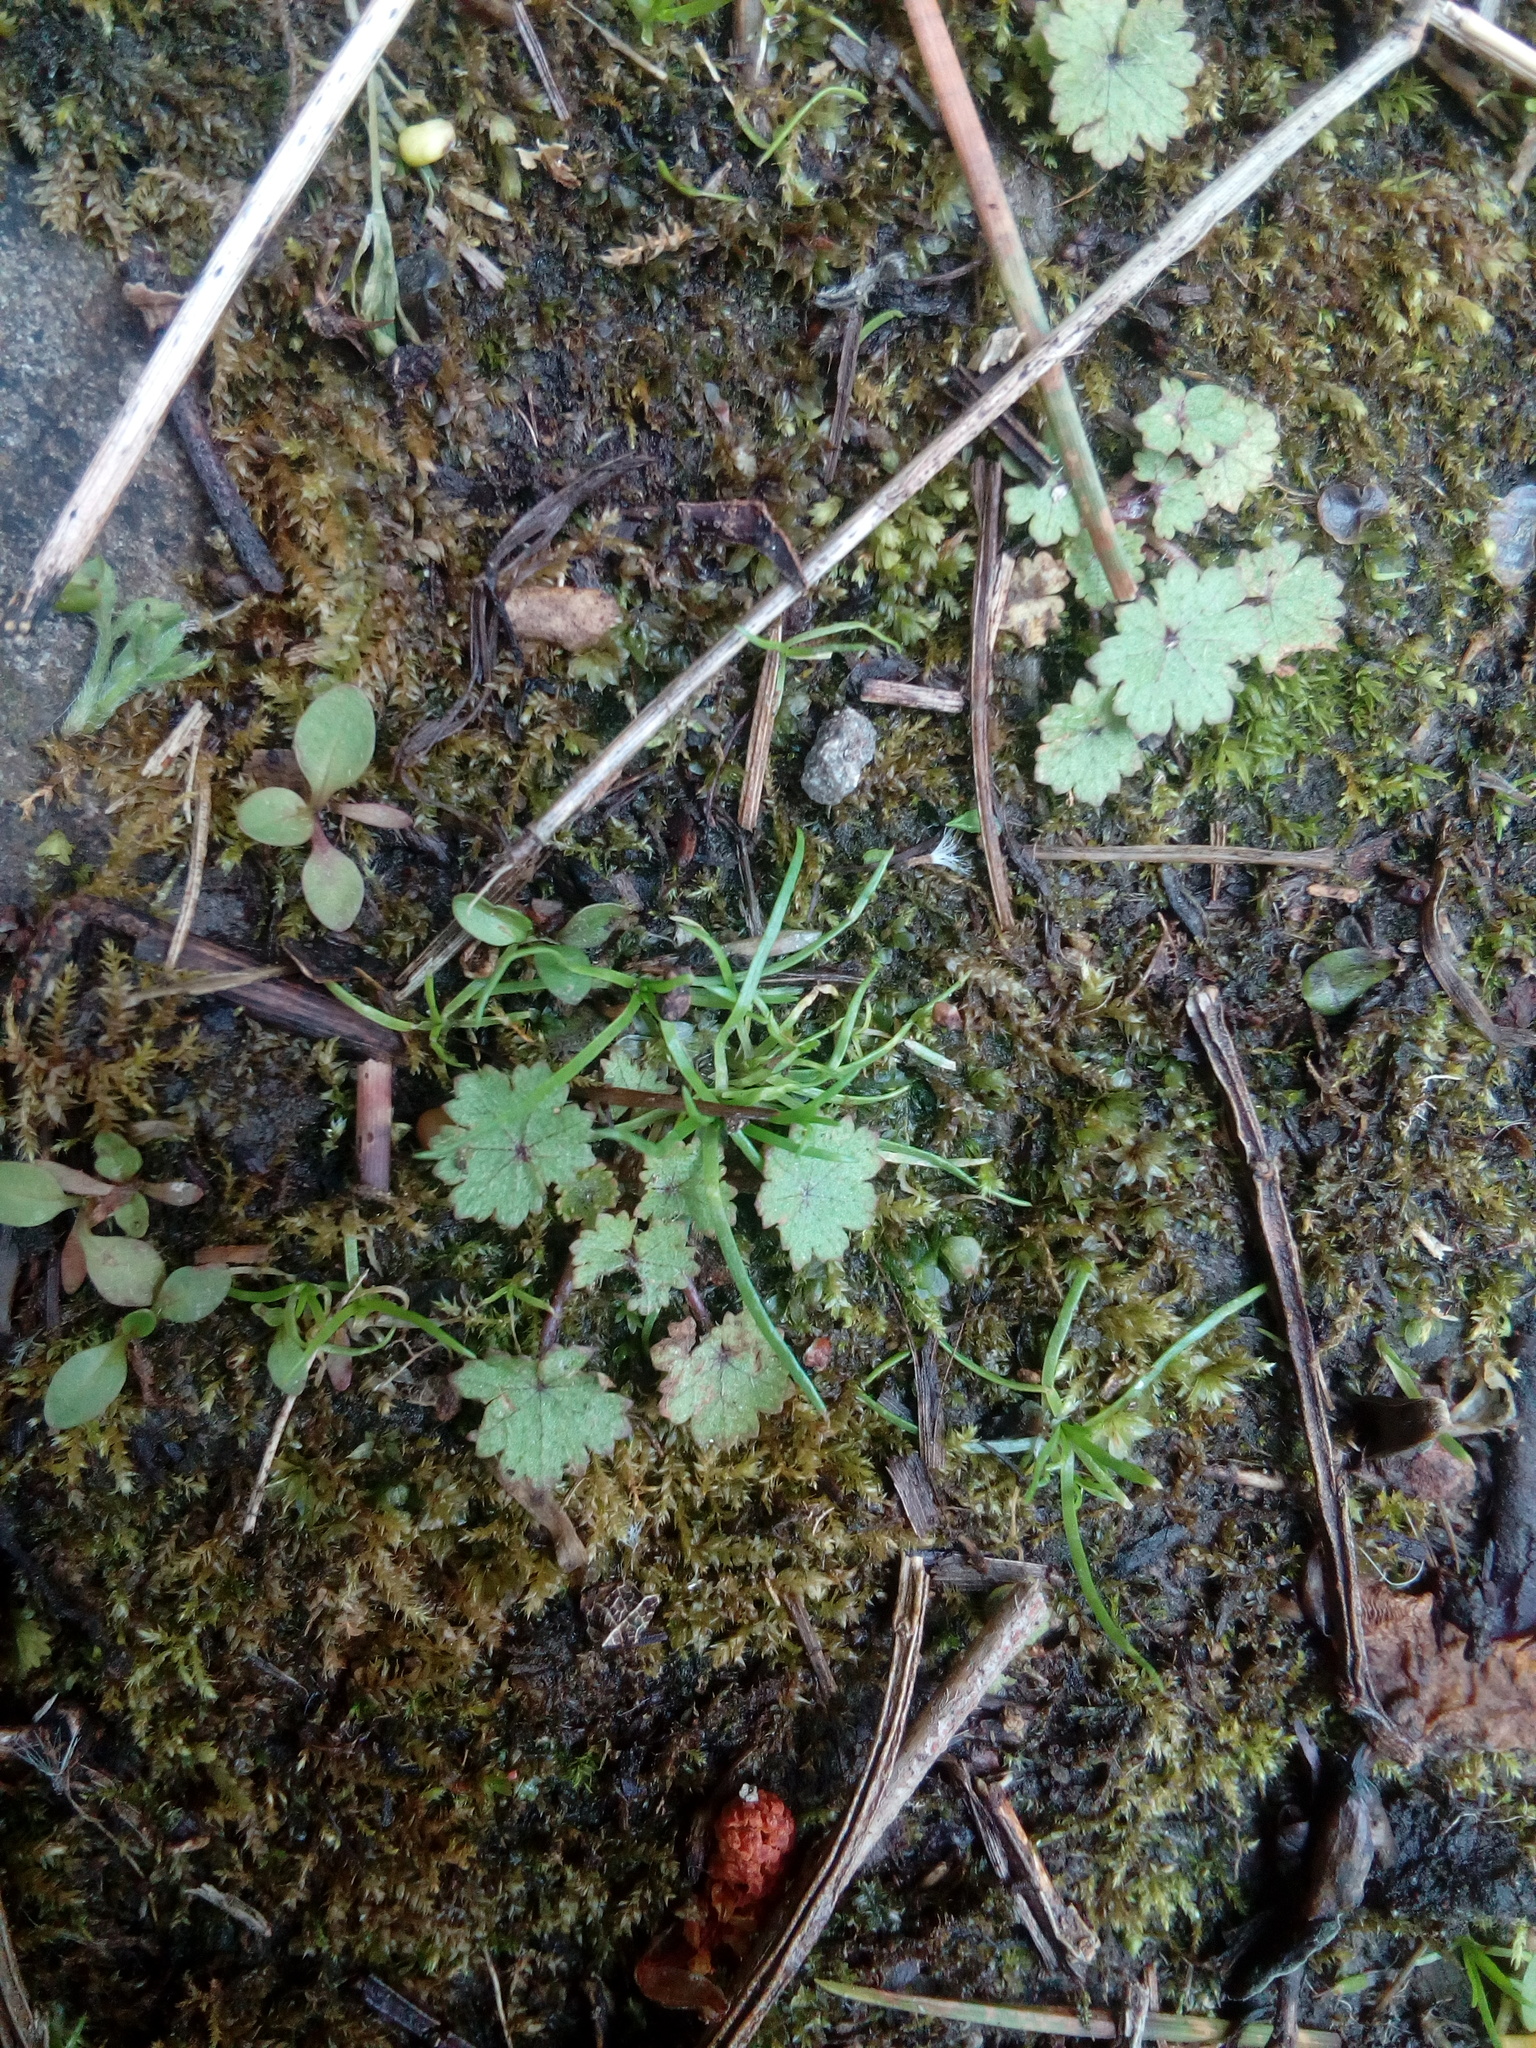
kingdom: Plantae
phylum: Tracheophyta
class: Magnoliopsida
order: Apiales
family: Araliaceae
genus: Hydrocotyle
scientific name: Hydrocotyle moschata
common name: Hairy pennywort
